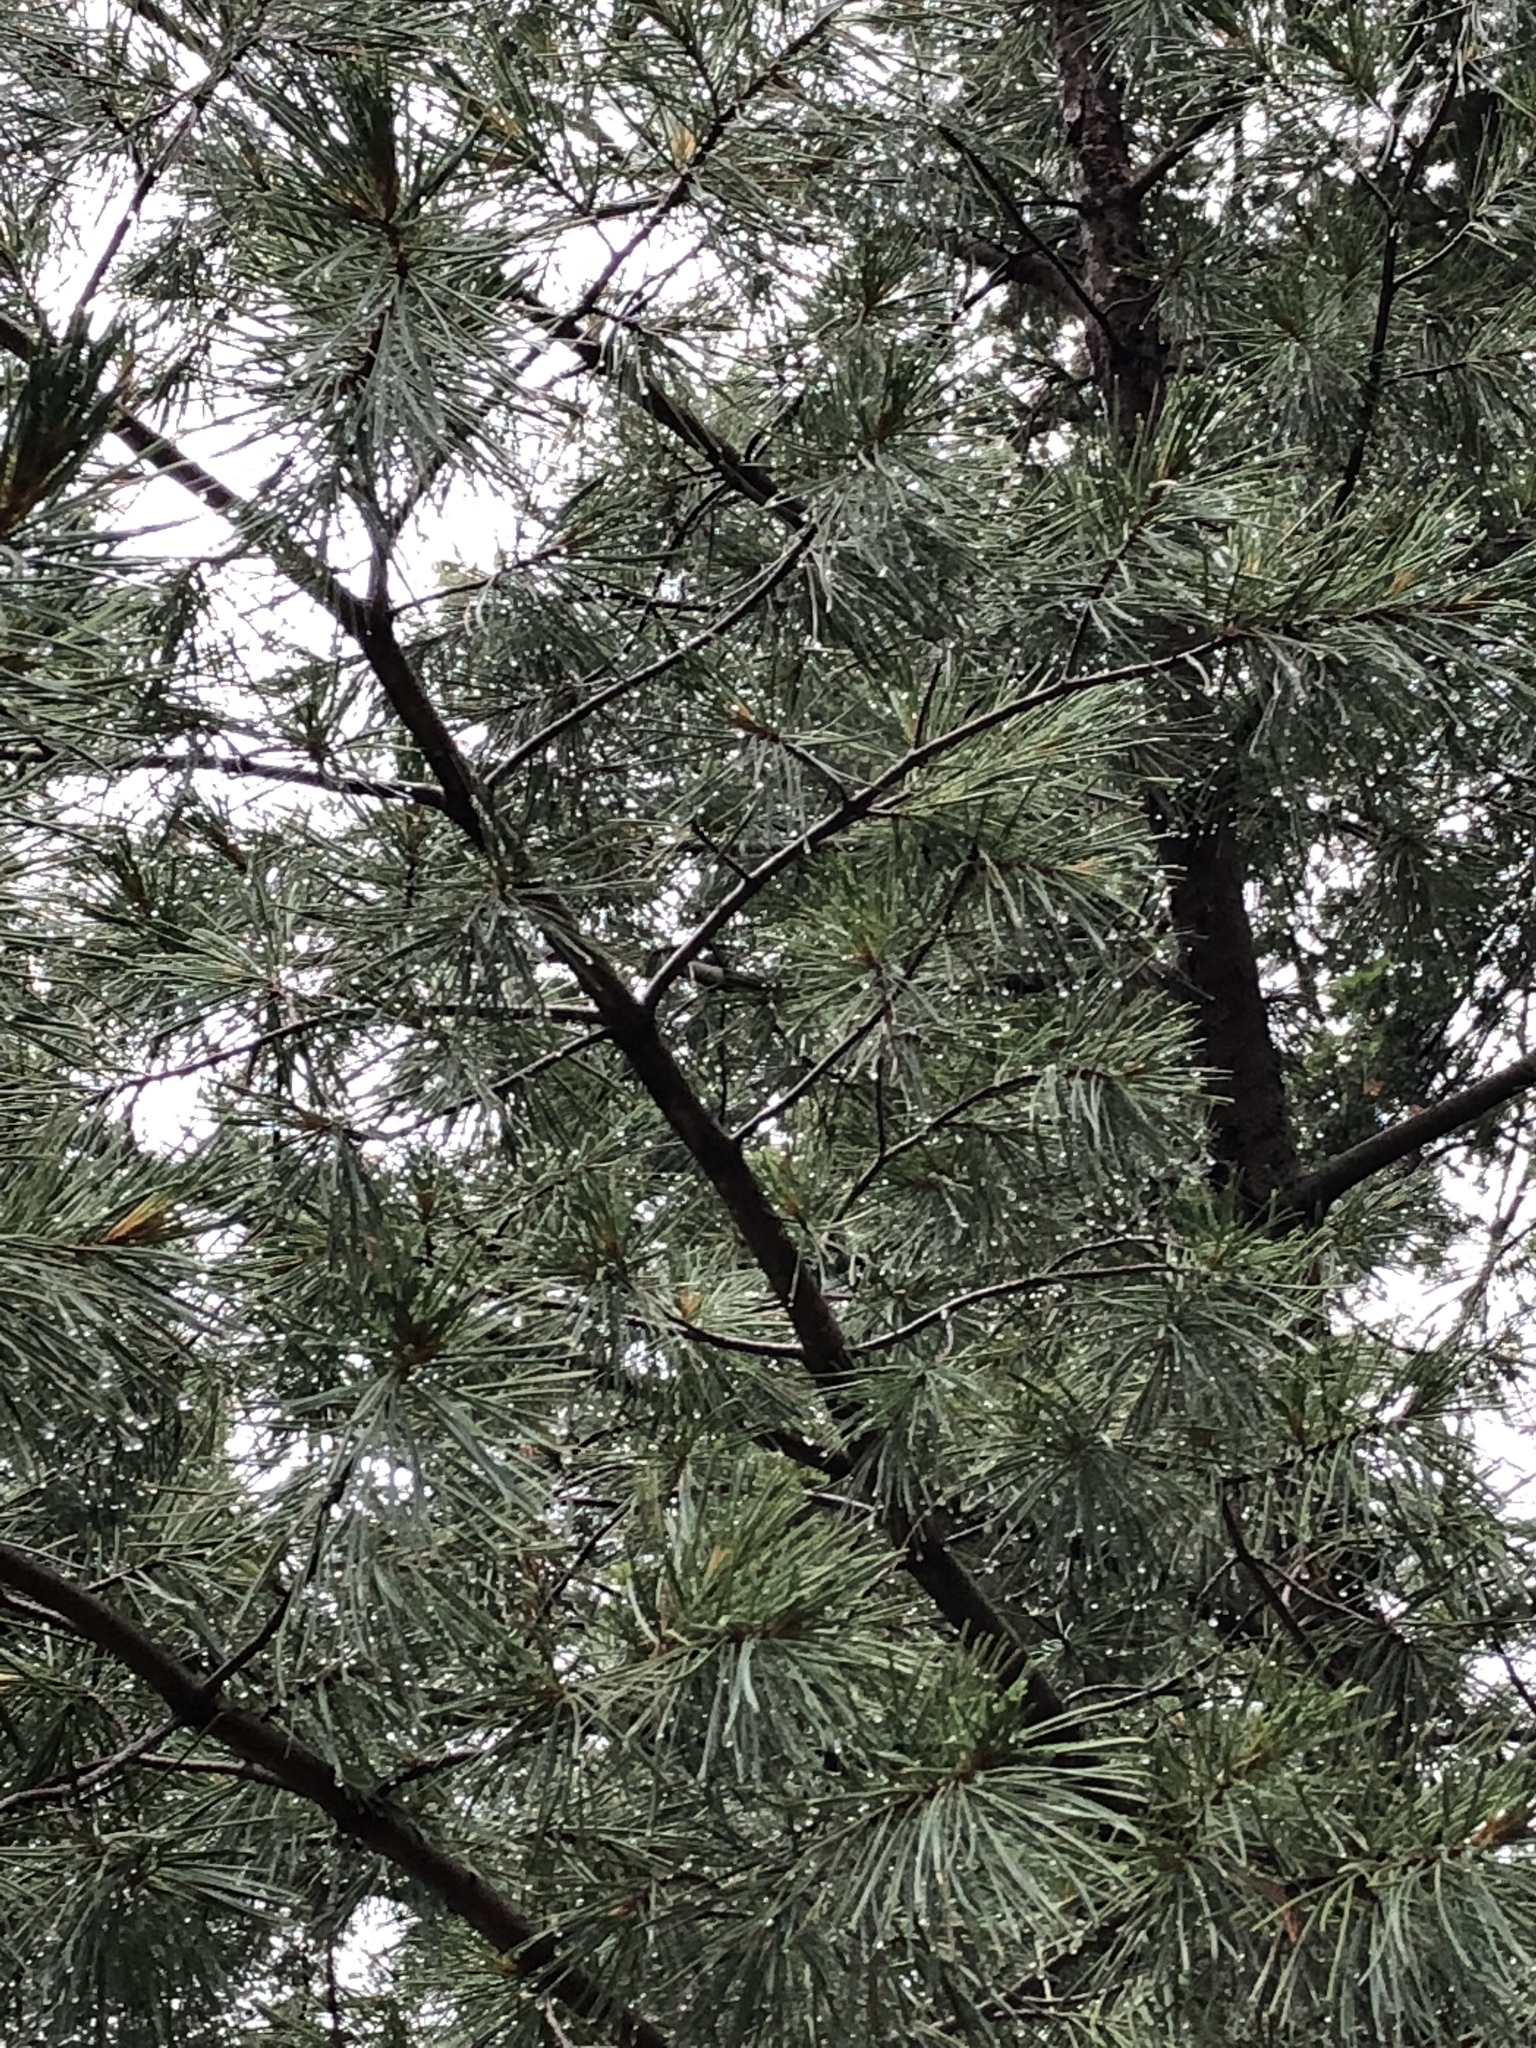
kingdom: Plantae
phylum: Tracheophyta
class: Pinopsida
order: Pinales
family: Pinaceae
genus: Pinus
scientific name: Pinus strobiformis
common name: Southwestern white pine
